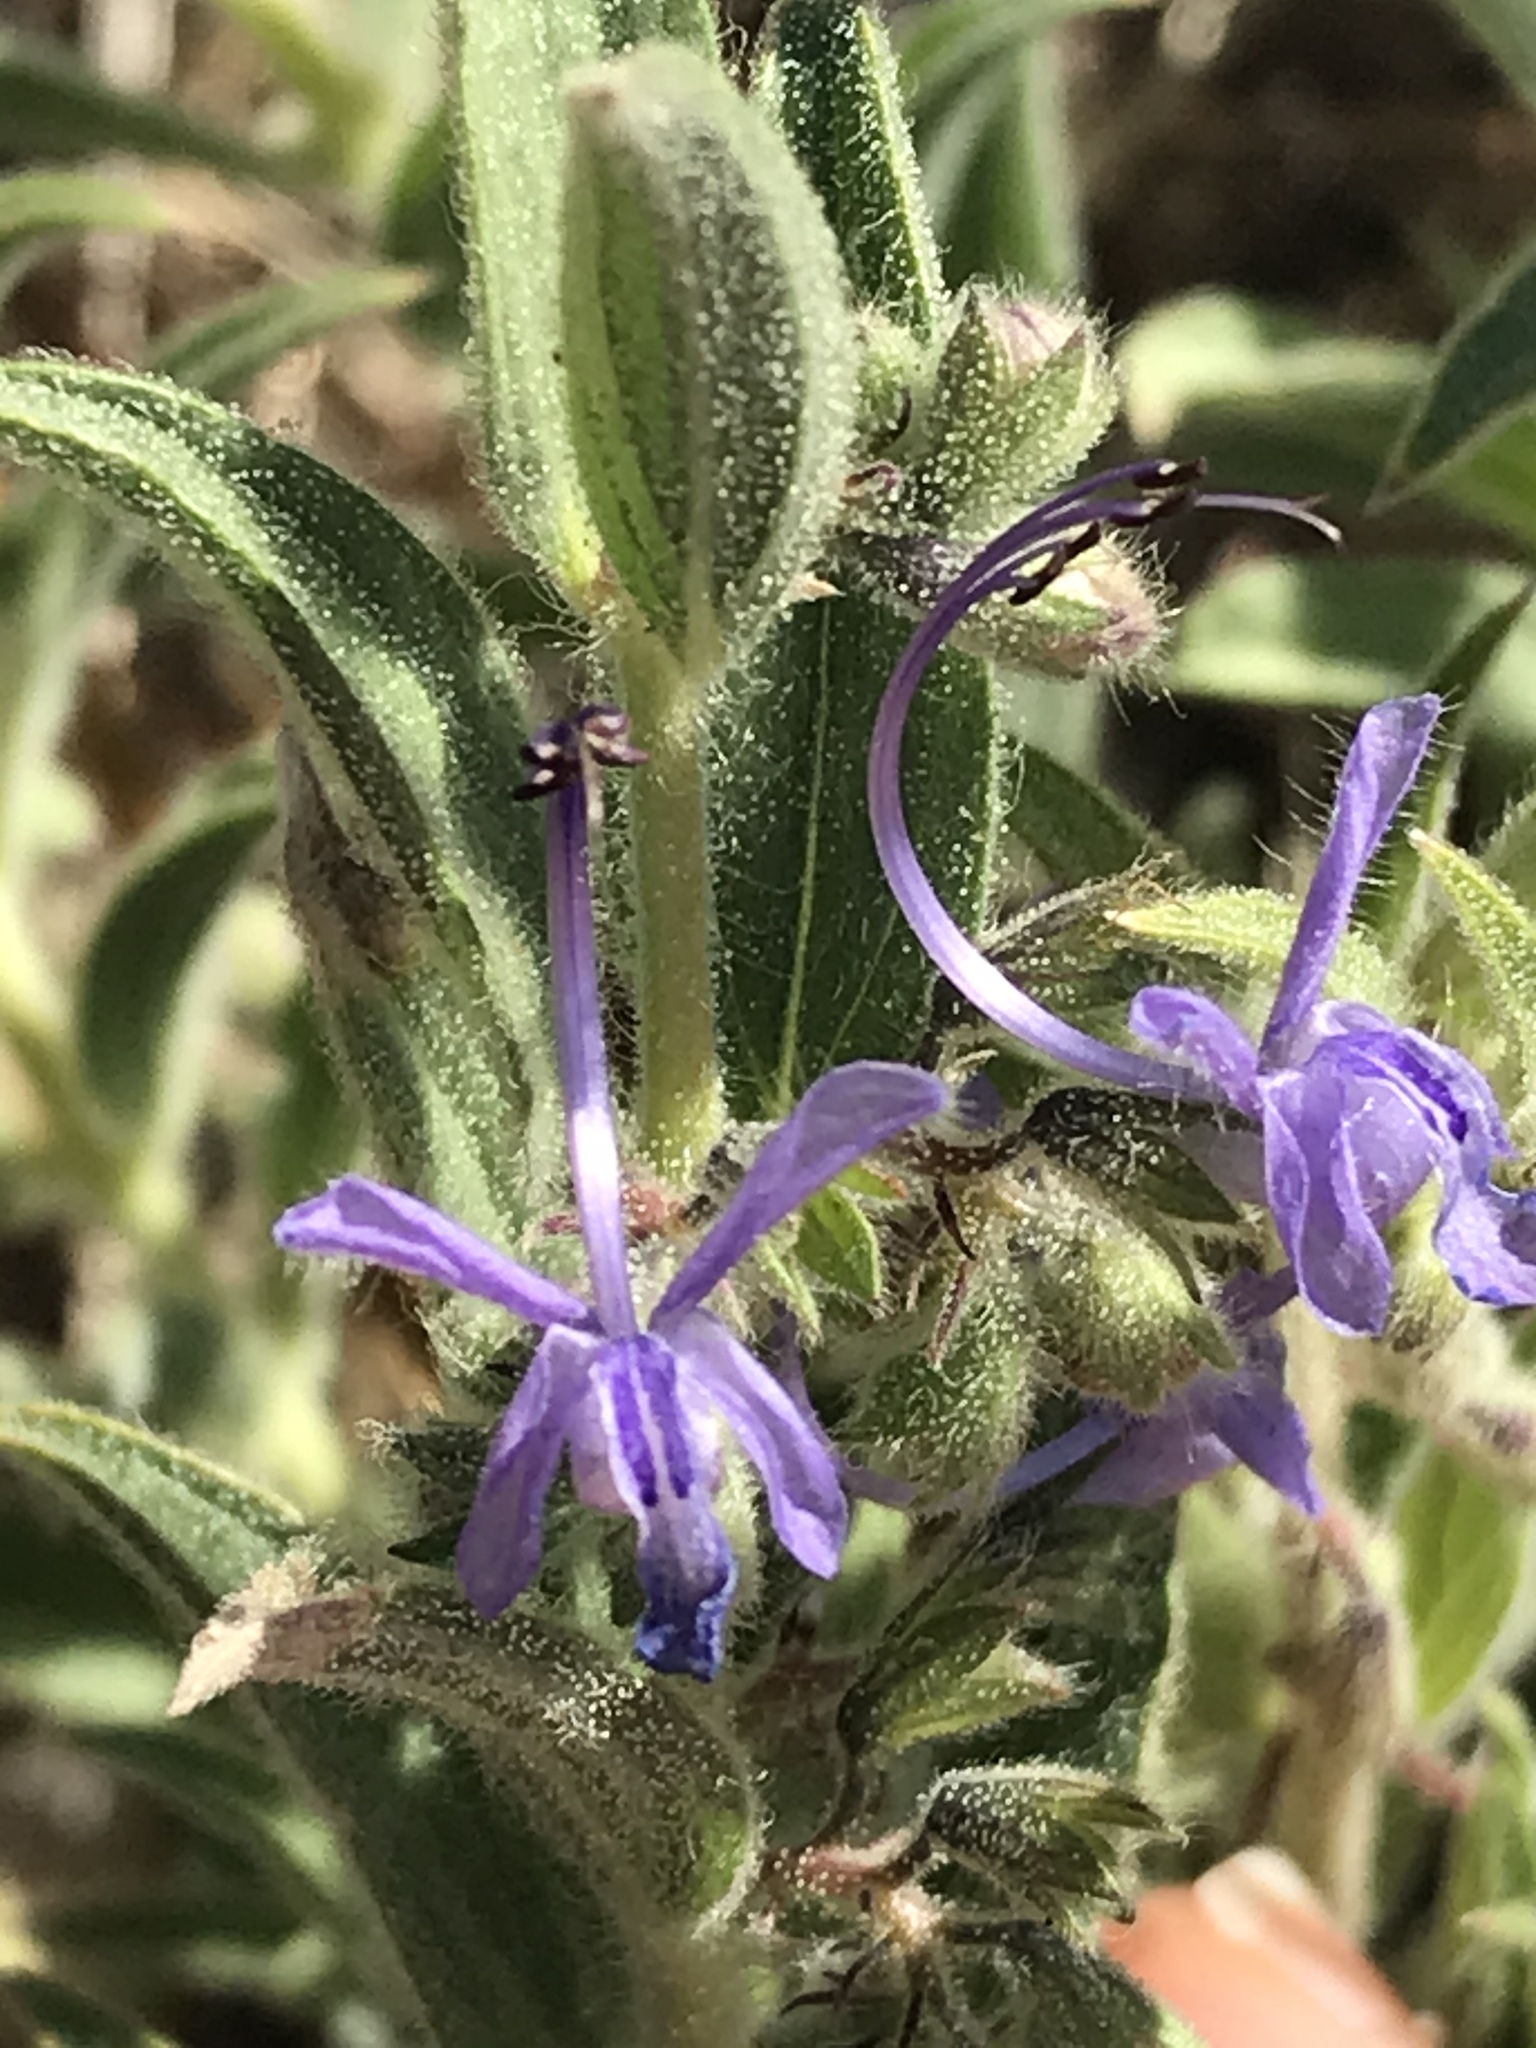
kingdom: Plantae
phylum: Tracheophyta
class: Magnoliopsida
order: Lamiales
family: Lamiaceae
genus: Trichostema
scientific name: Trichostema lanceolatum
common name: Vinegar-weed
